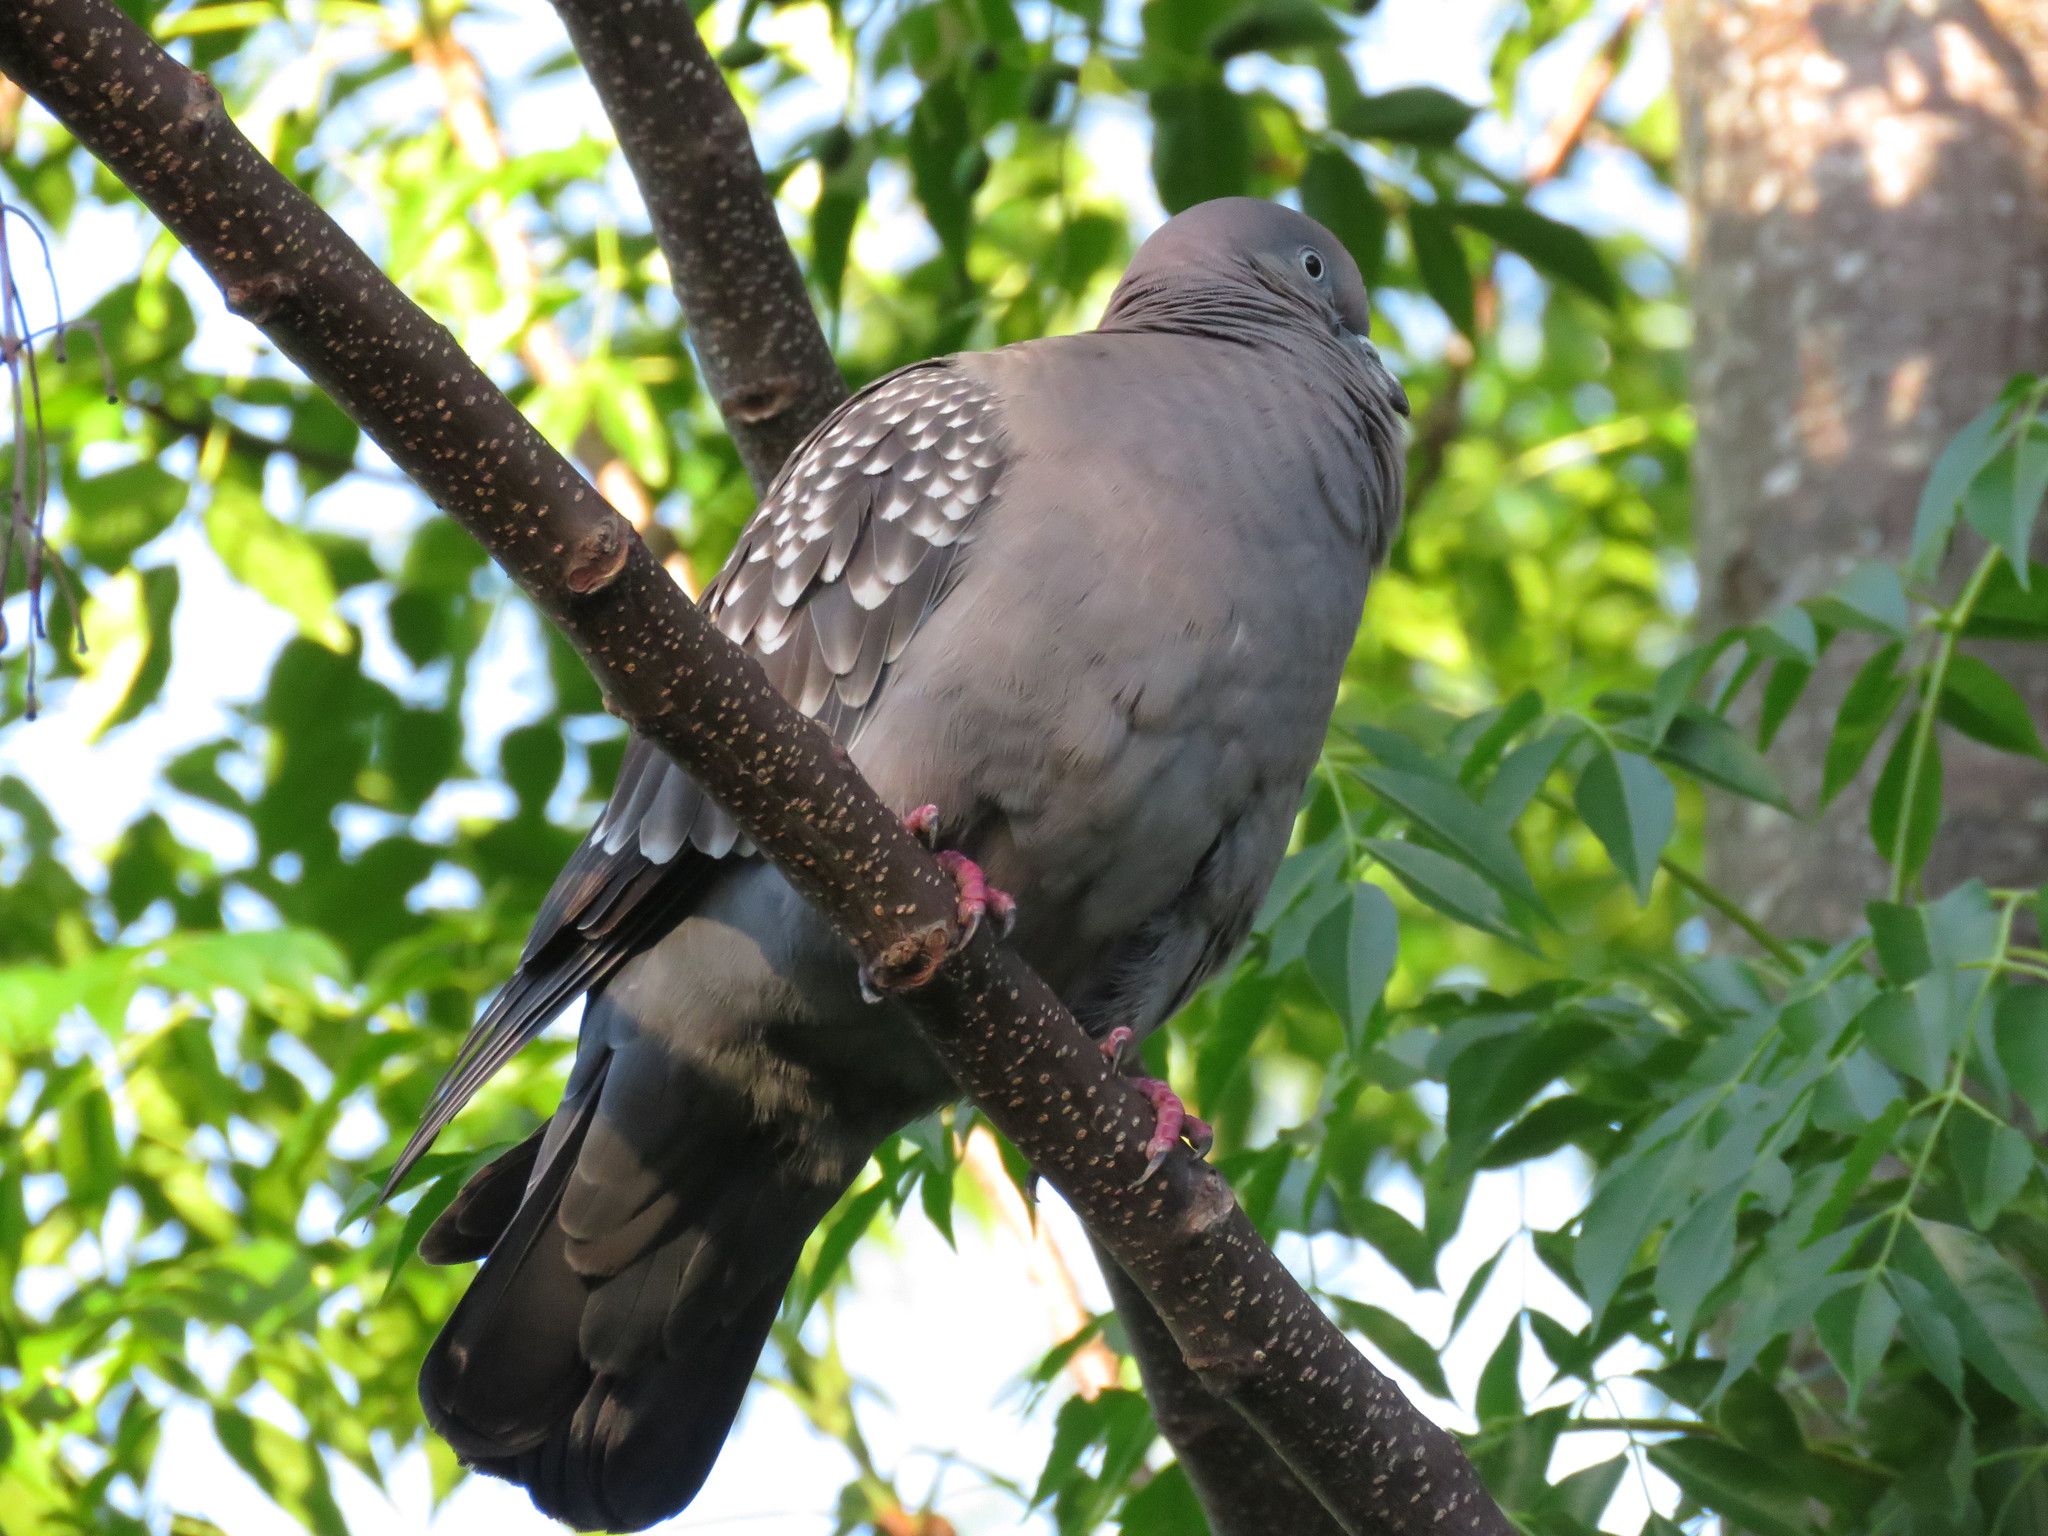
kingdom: Animalia
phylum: Chordata
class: Aves
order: Columbiformes
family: Columbidae
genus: Patagioenas
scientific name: Patagioenas maculosa
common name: Spot-winged pigeon
